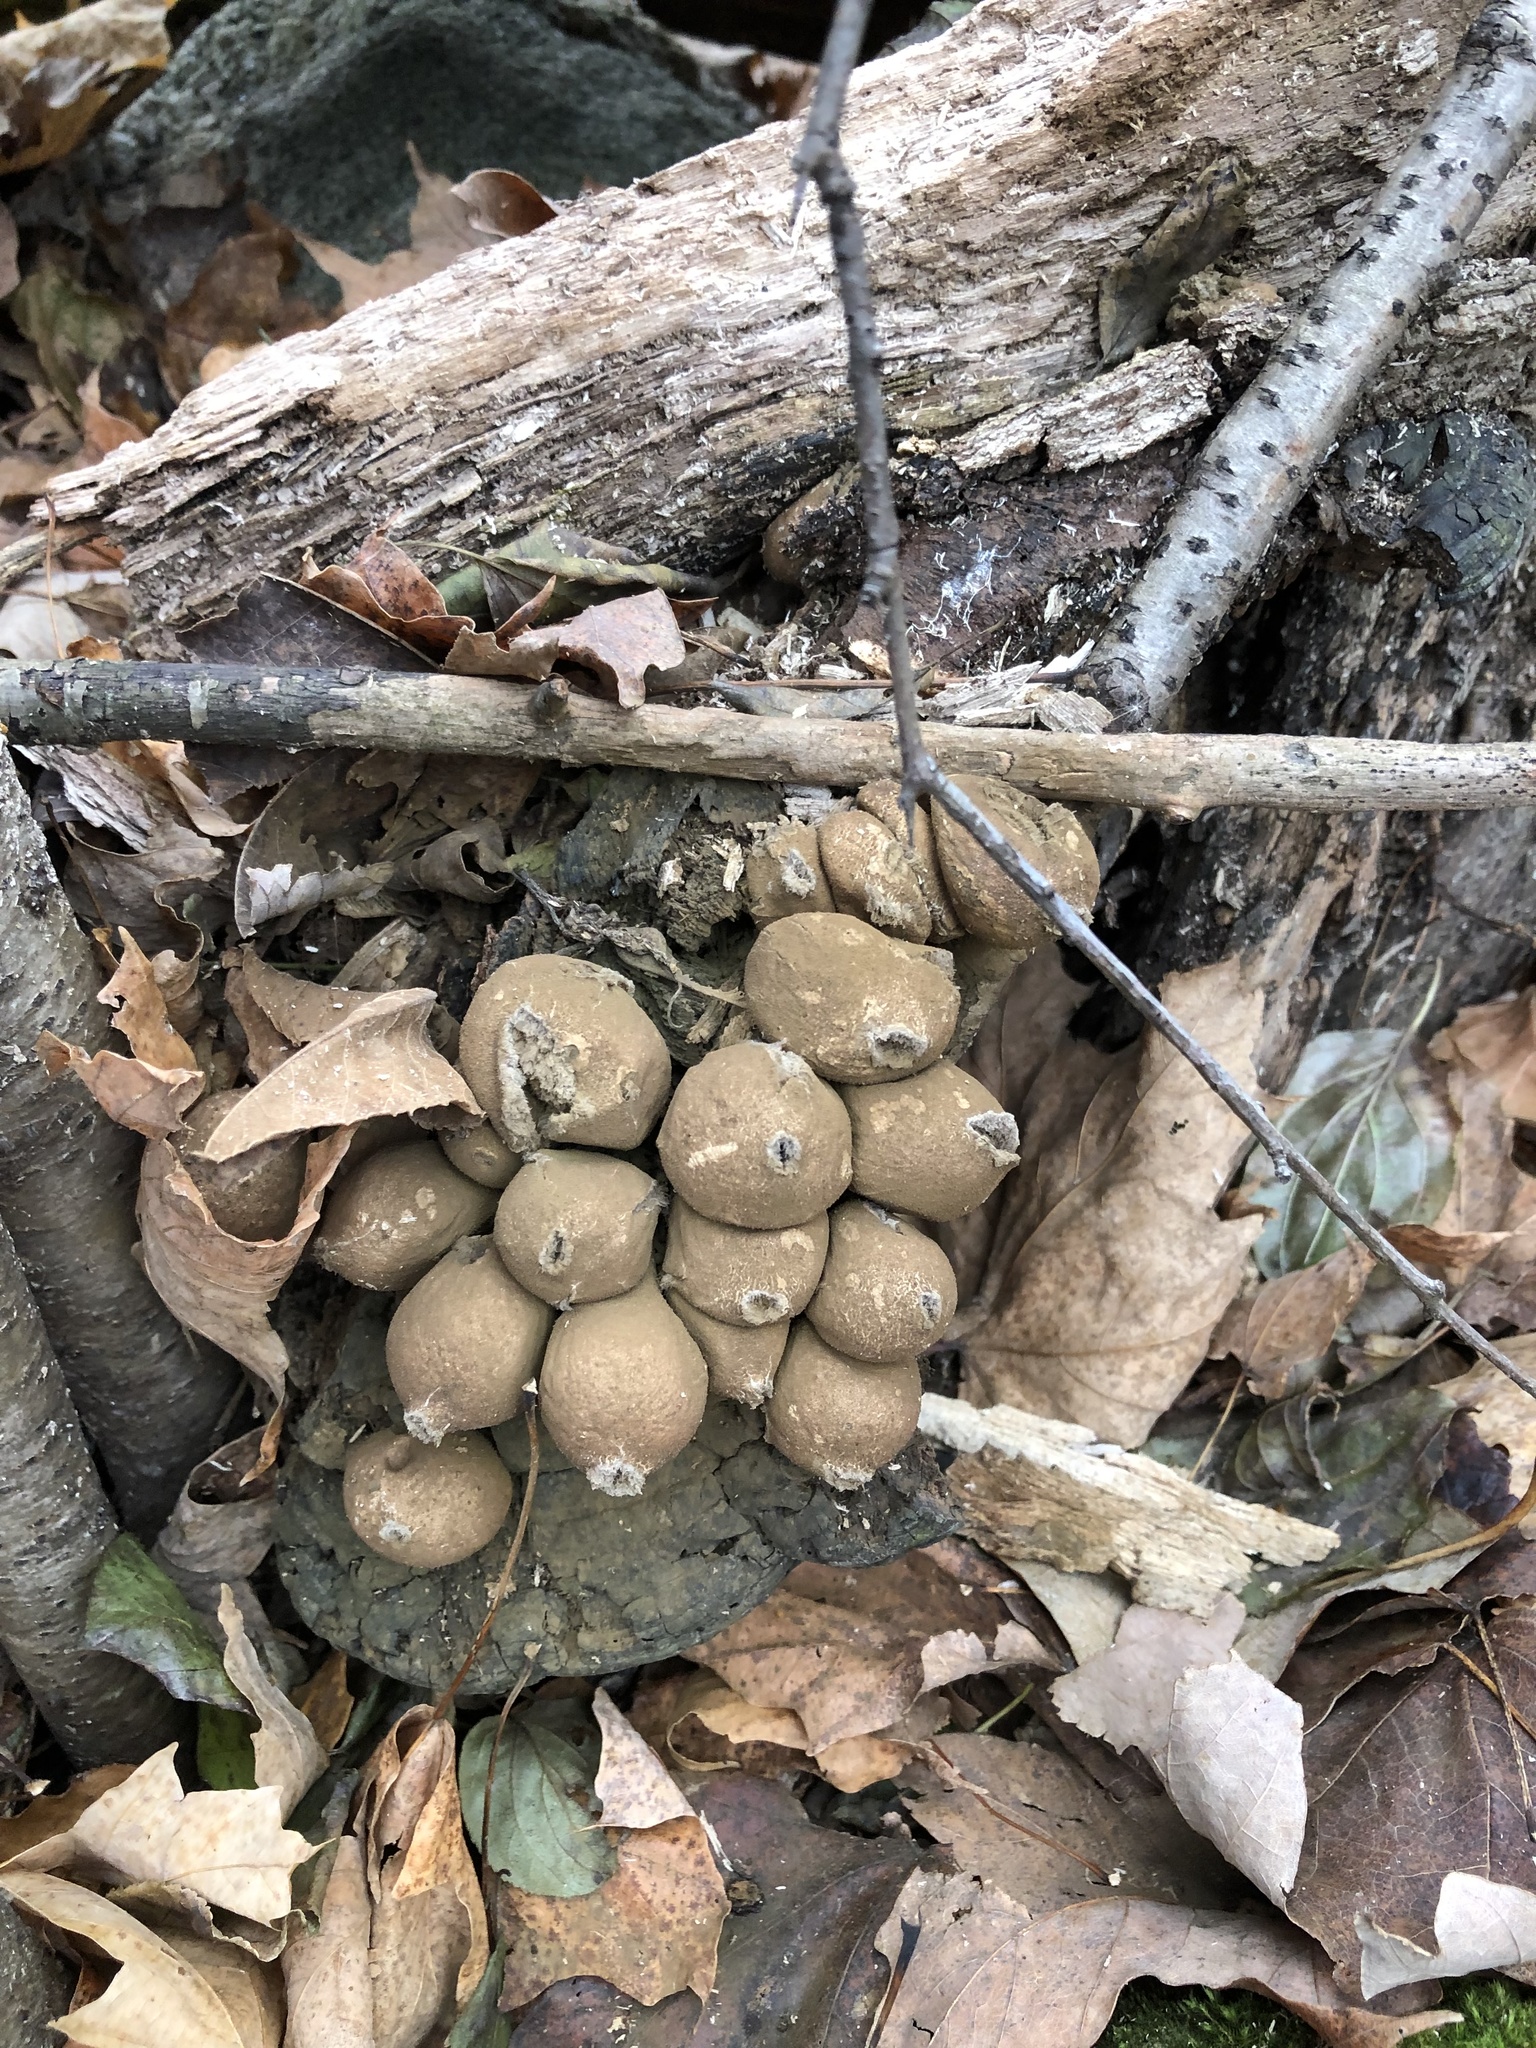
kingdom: Fungi
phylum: Basidiomycota
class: Agaricomycetes
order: Agaricales
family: Lycoperdaceae
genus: Apioperdon
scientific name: Apioperdon pyriforme
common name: Pear-shaped puffball
